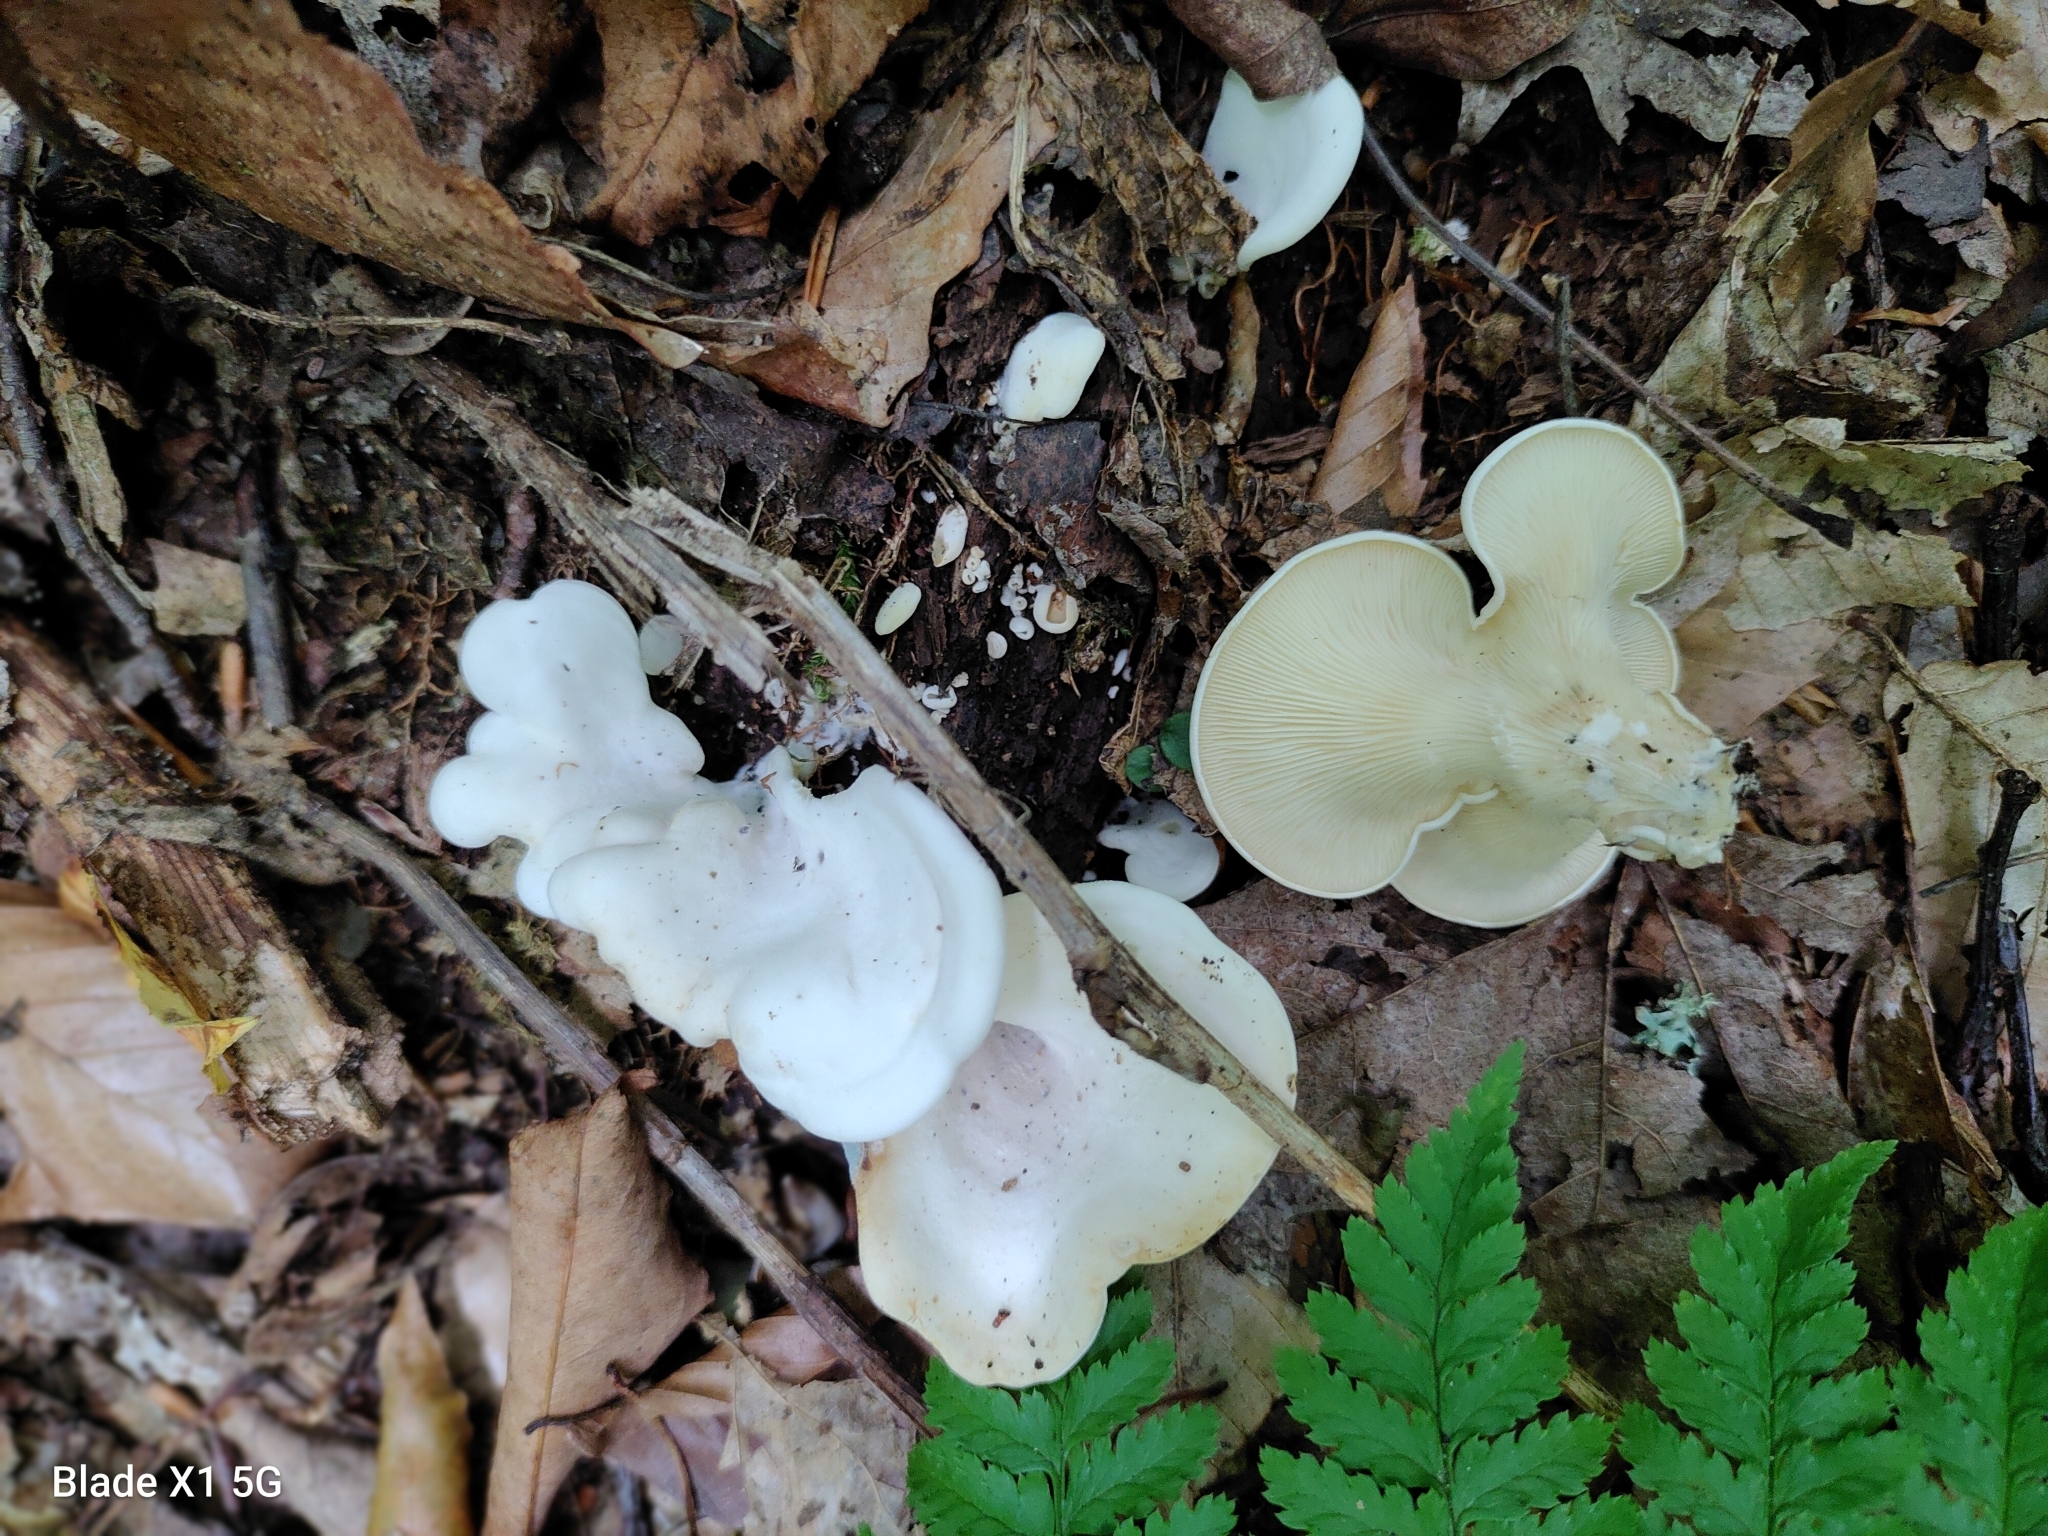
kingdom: Fungi
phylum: Basidiomycota
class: Agaricomycetes
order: Agaricales
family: Marasmiaceae
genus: Pleurocybella
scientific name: Pleurocybella porrigens
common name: Angel's wings
